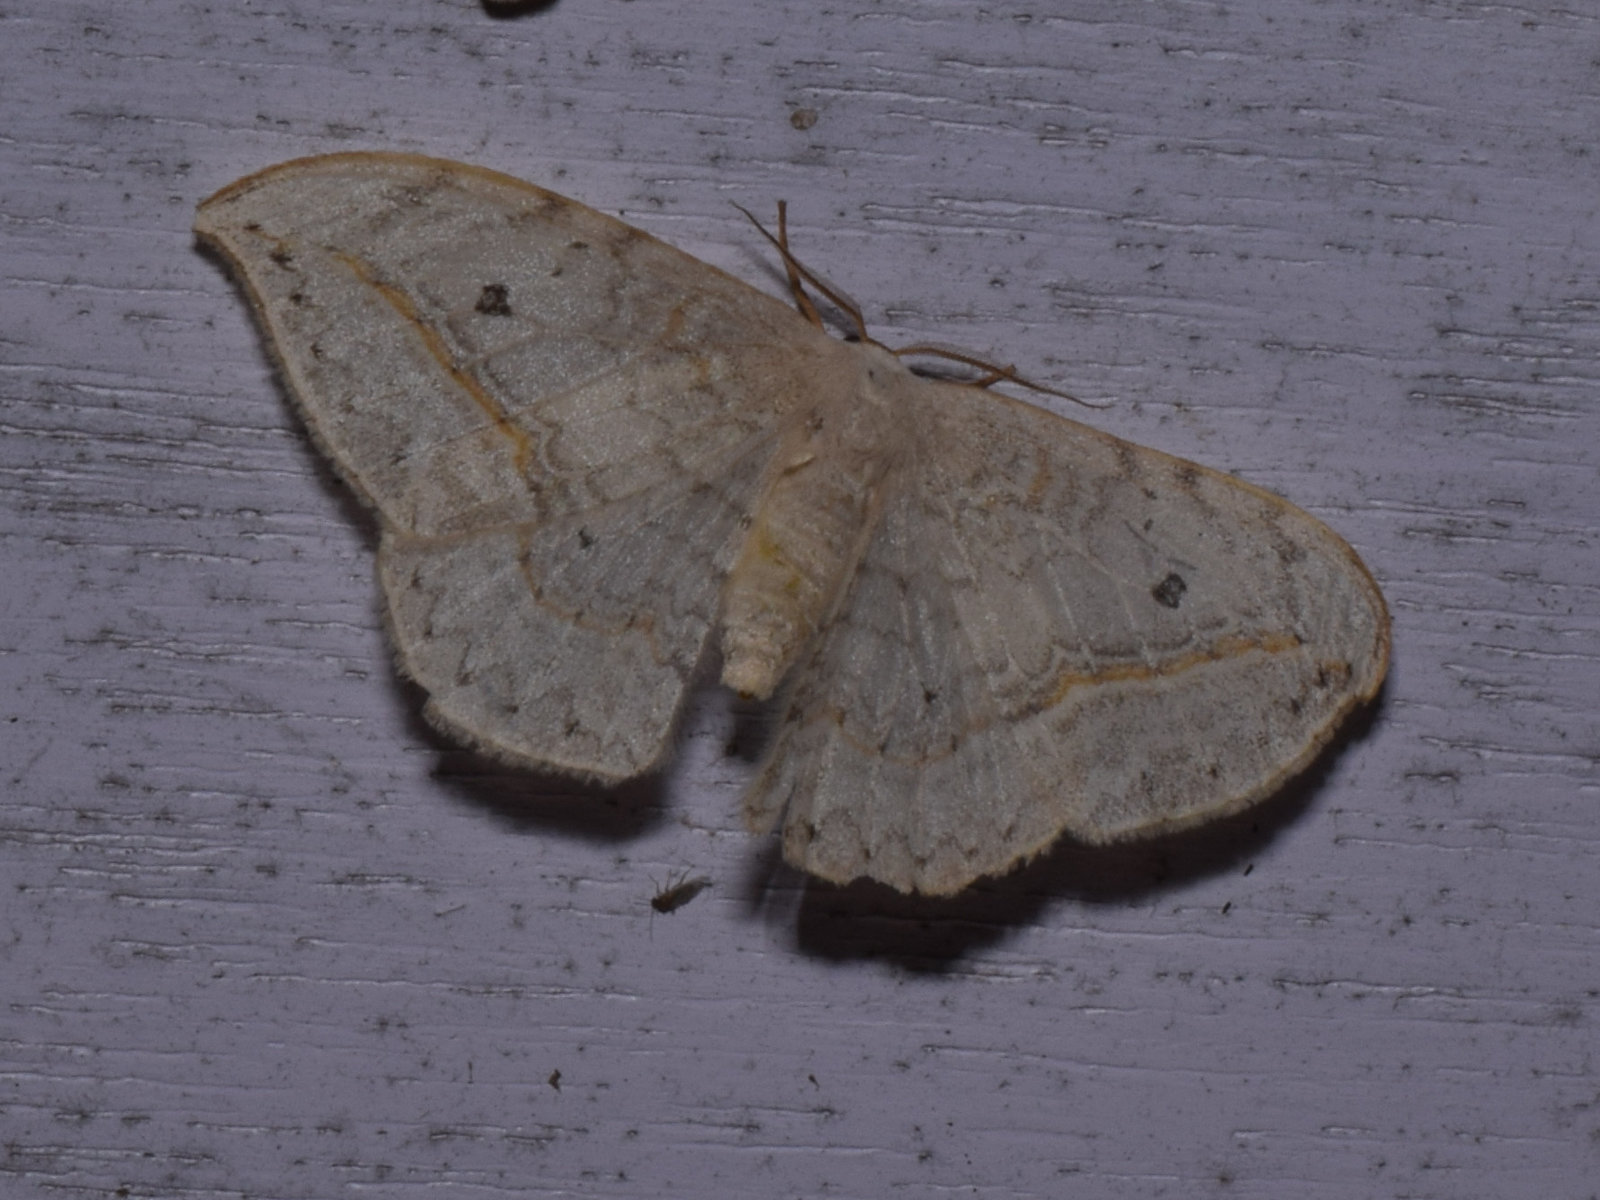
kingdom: Animalia
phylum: Arthropoda
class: Insecta
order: Lepidoptera
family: Drepanidae
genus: Drepana
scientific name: Drepana pallida
